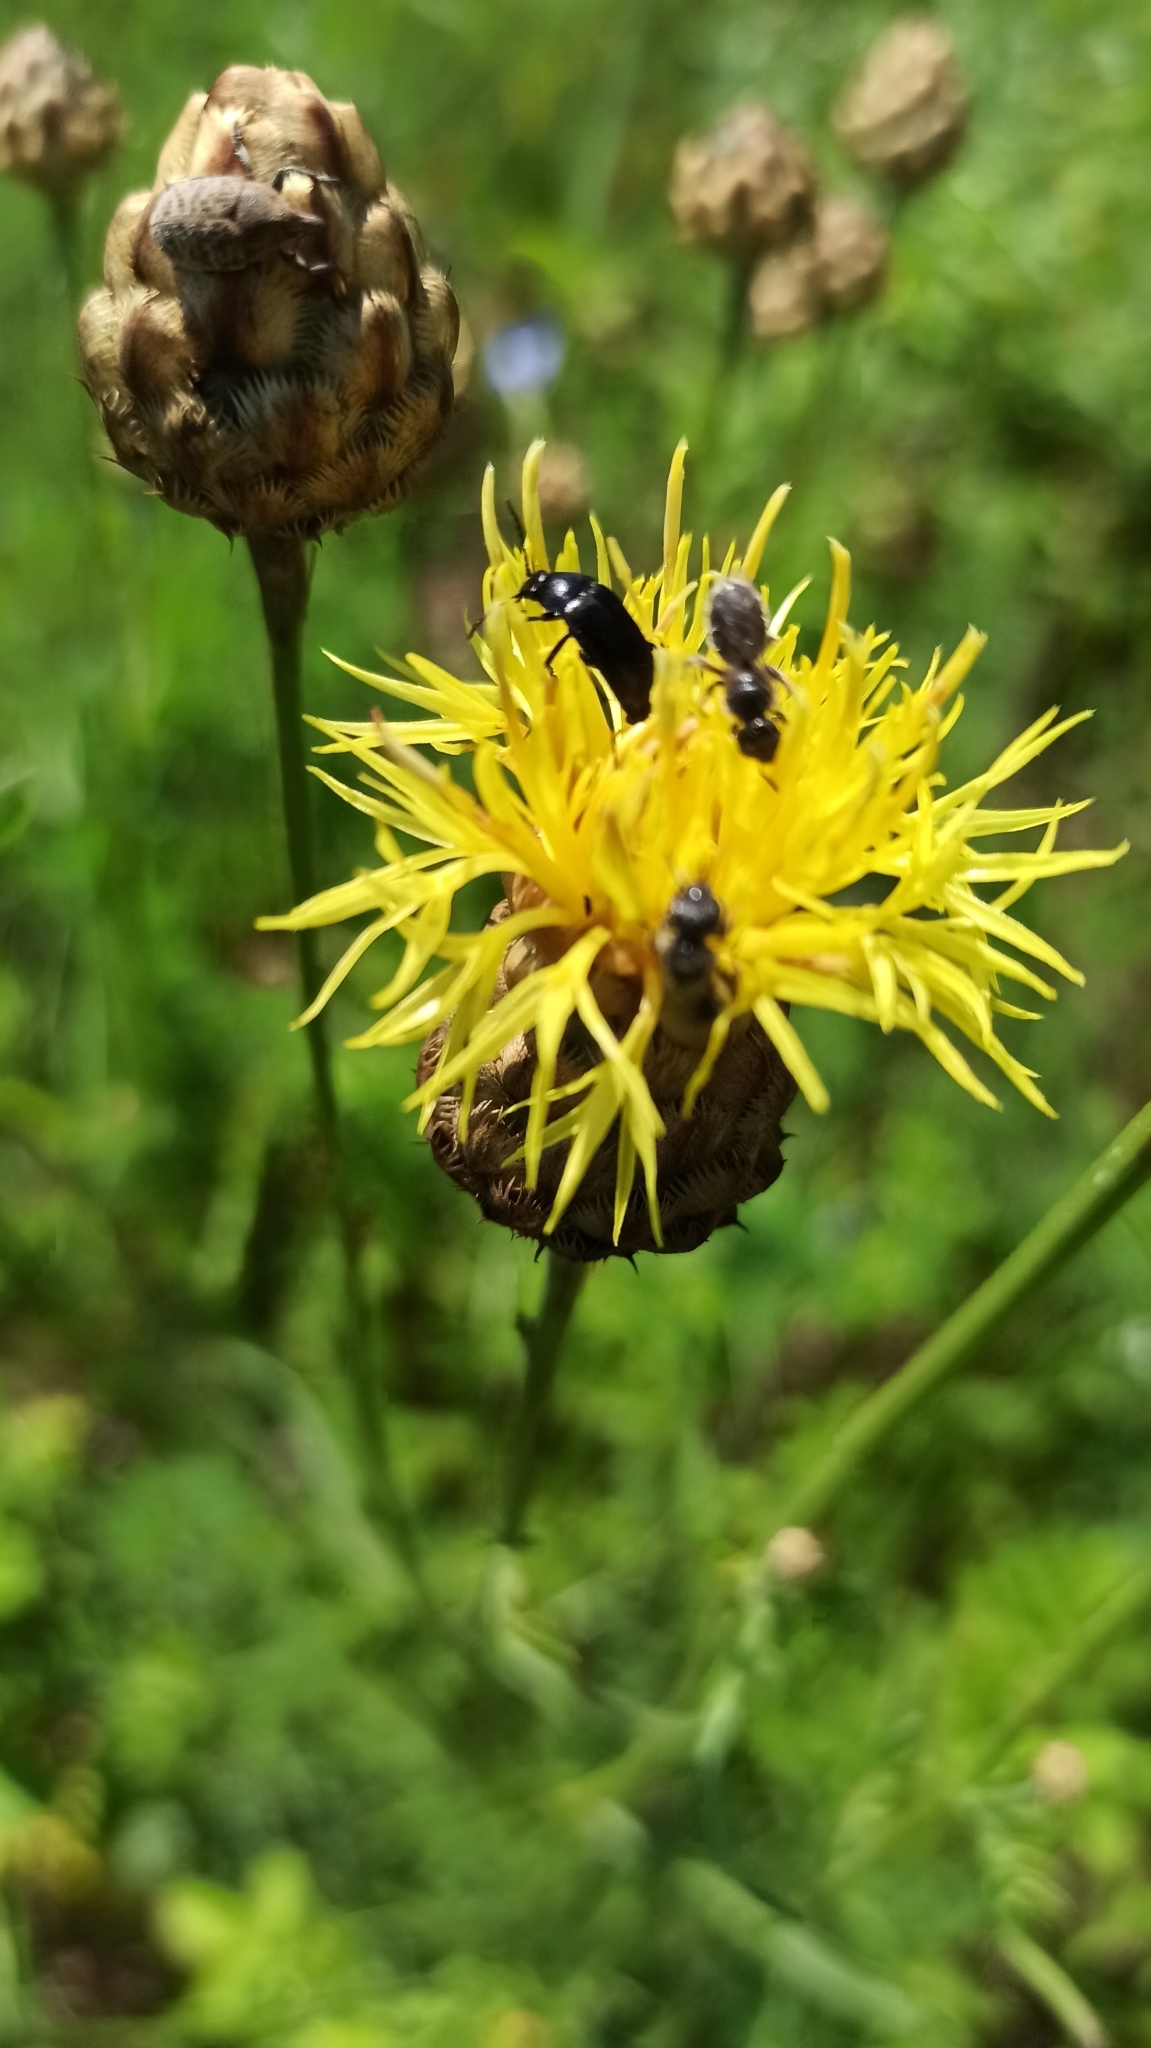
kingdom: Plantae
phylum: Tracheophyta
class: Magnoliopsida
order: Asterales
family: Asteraceae
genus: Centaurea
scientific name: Centaurea orientalis
